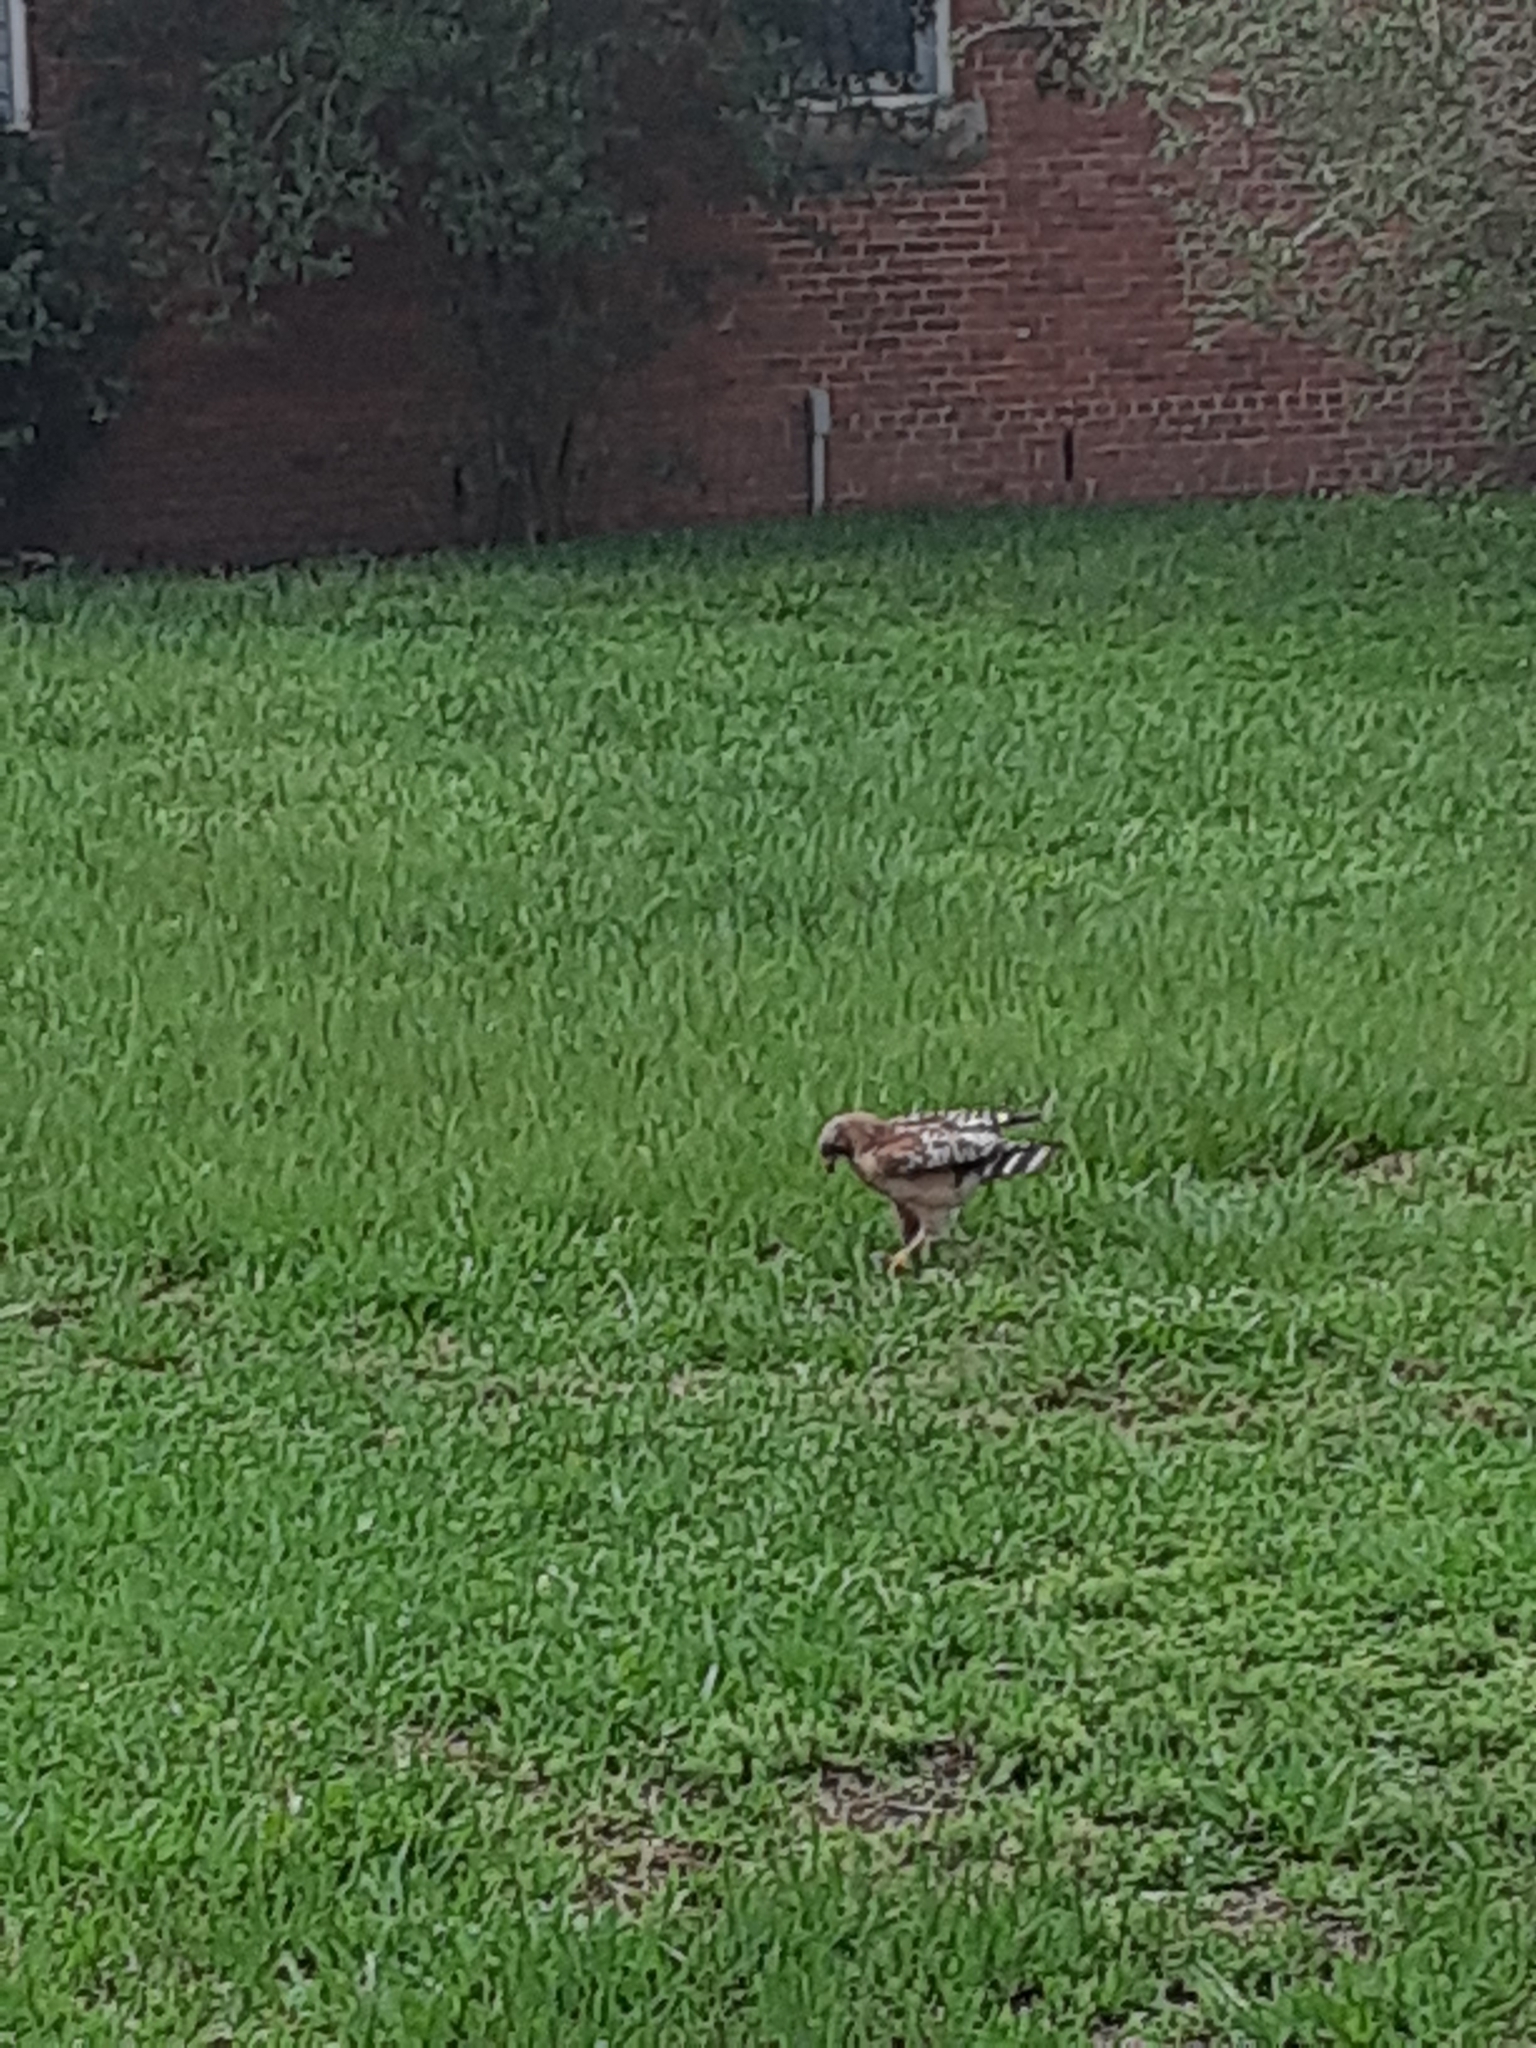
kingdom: Animalia
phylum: Chordata
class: Aves
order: Accipitriformes
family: Accipitridae
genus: Buteo
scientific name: Buteo lineatus
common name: Red-shouldered hawk
